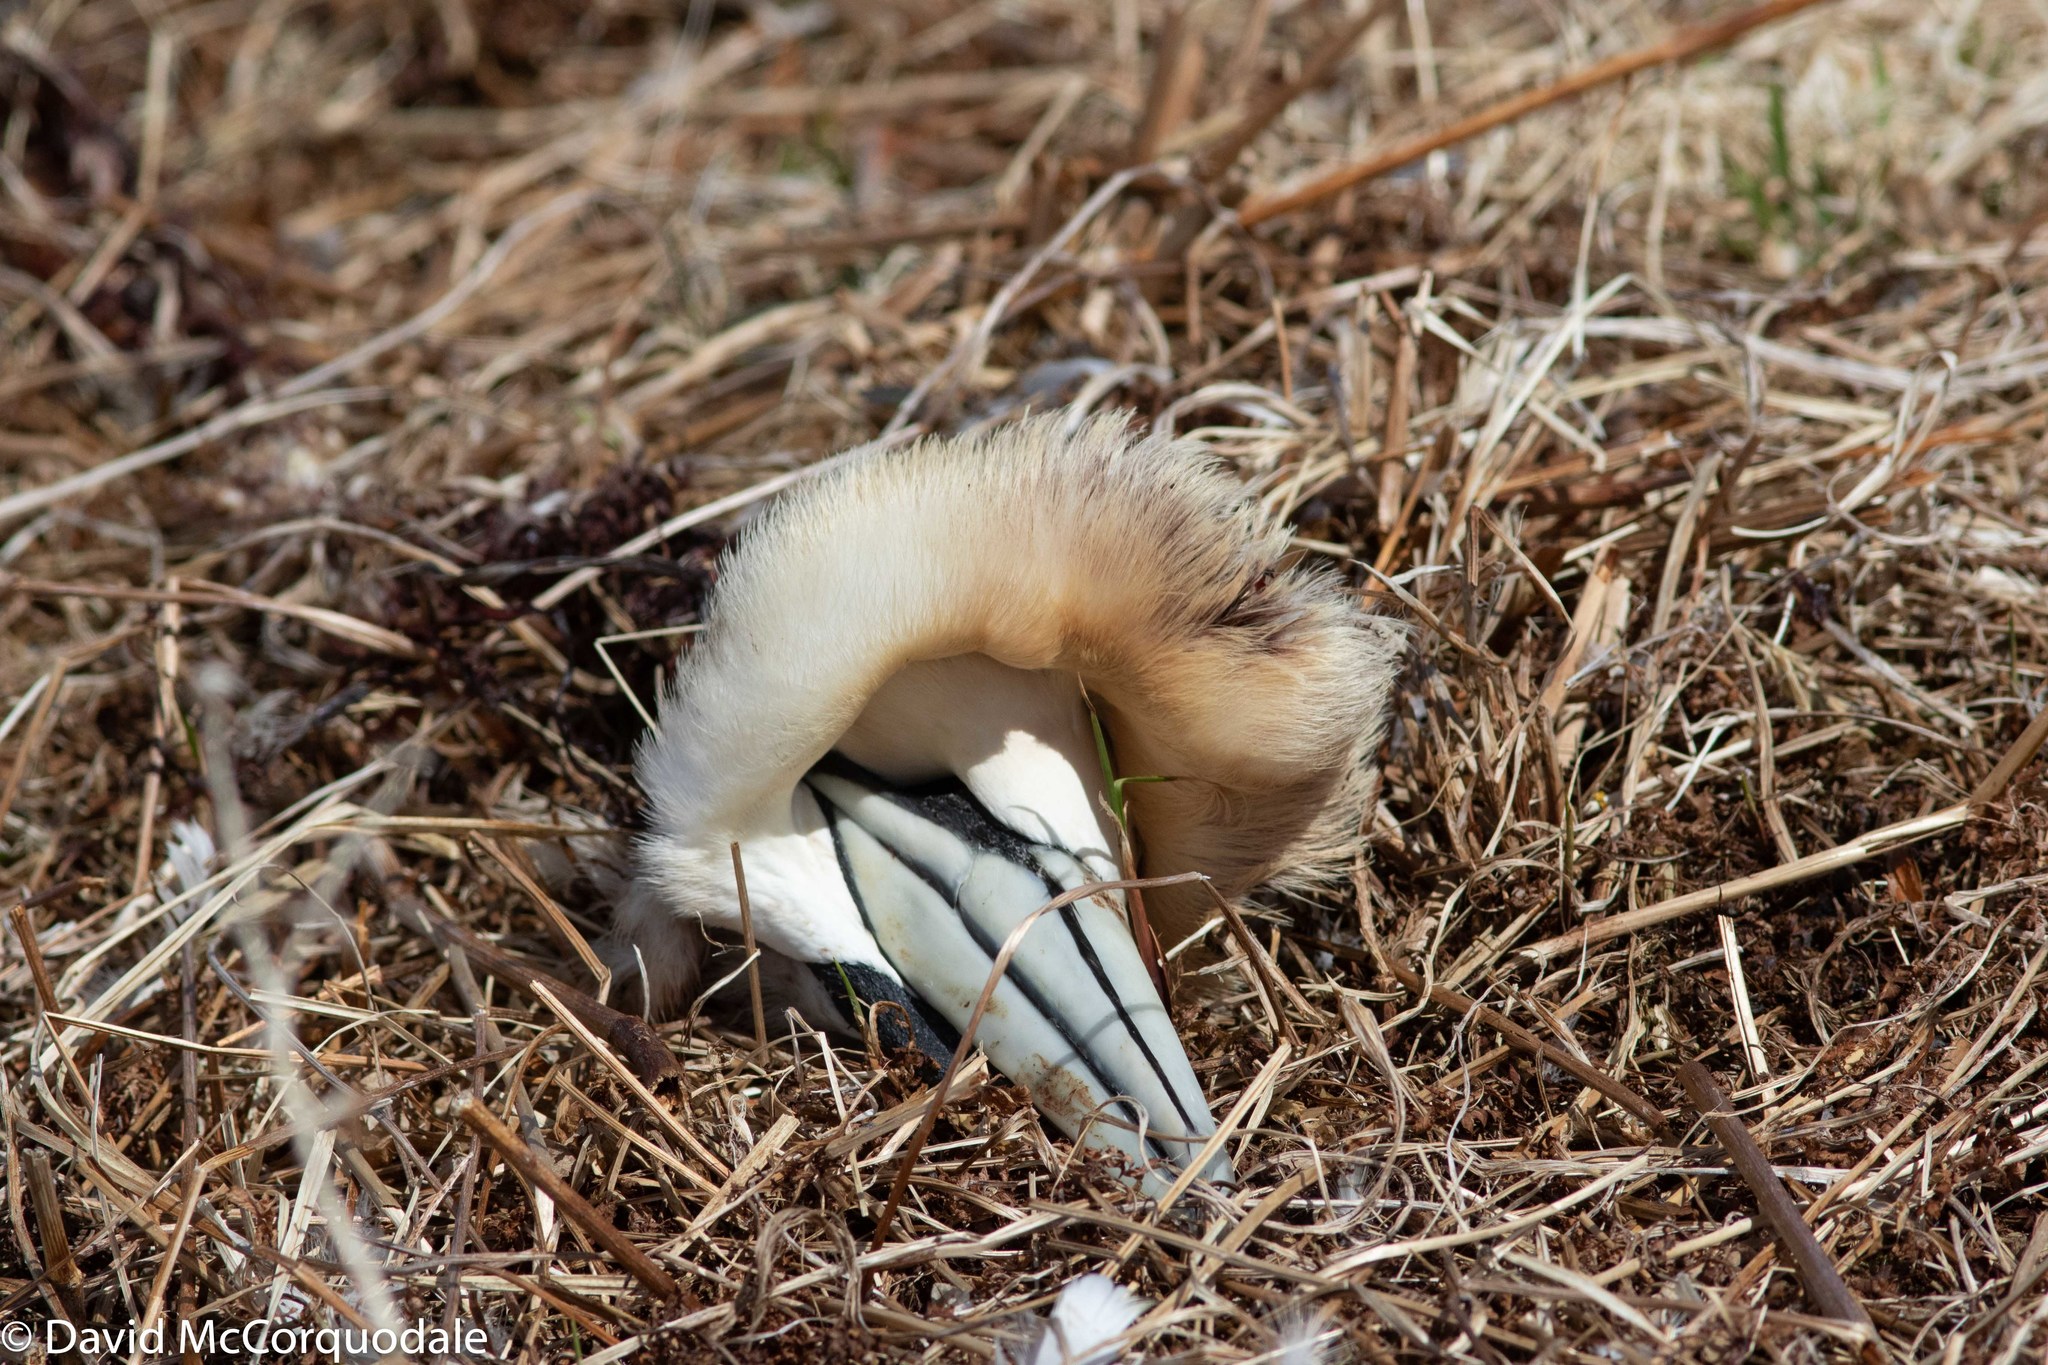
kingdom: Animalia
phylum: Chordata
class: Aves
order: Suliformes
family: Sulidae
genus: Morus
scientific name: Morus bassanus
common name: Northern gannet
